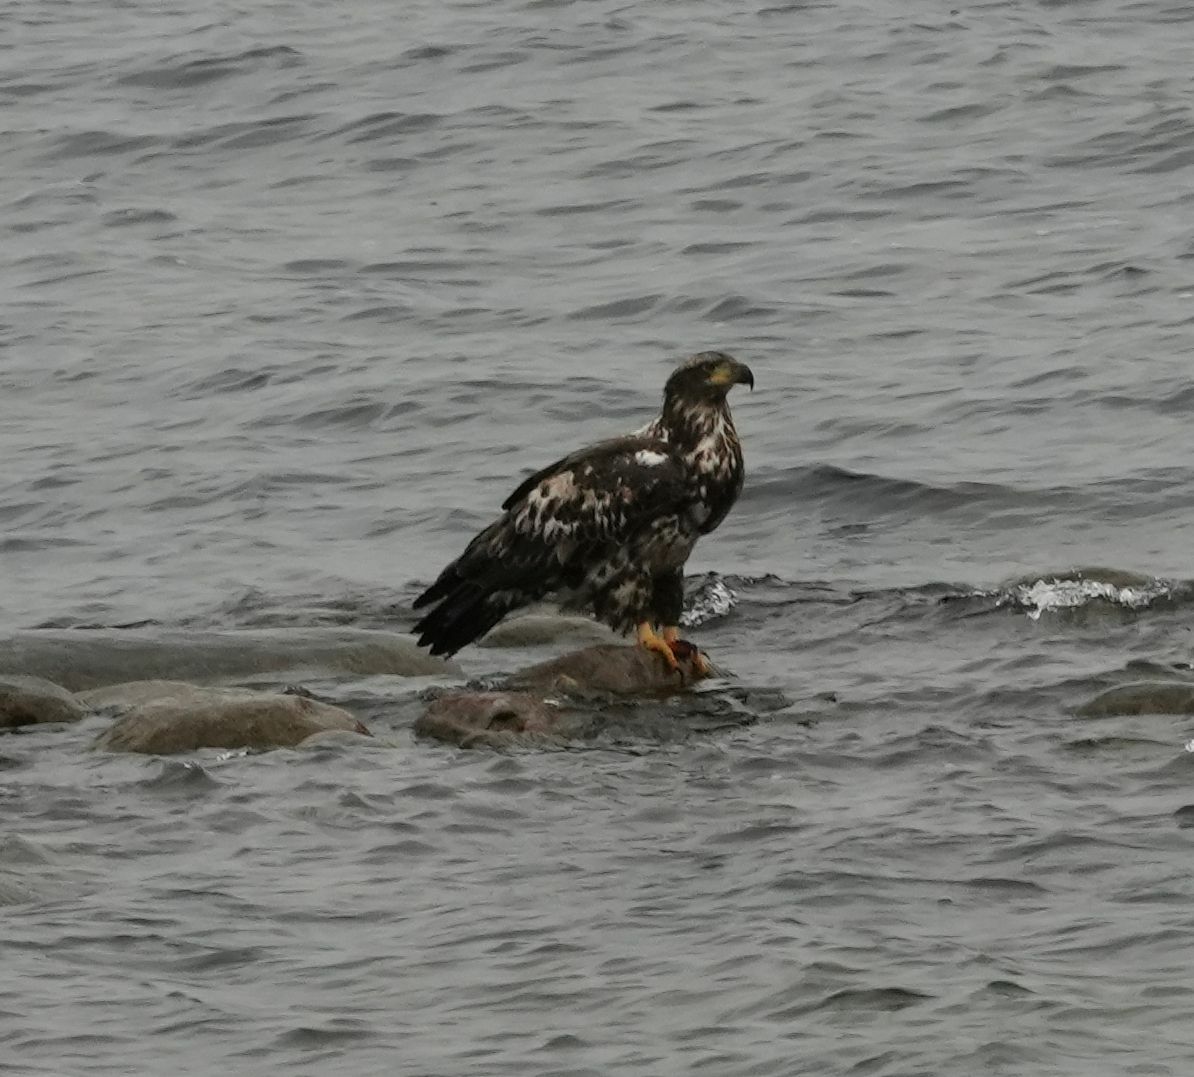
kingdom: Animalia
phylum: Chordata
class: Aves
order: Accipitriformes
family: Accipitridae
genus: Haliaeetus
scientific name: Haliaeetus leucocephalus
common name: Bald eagle
